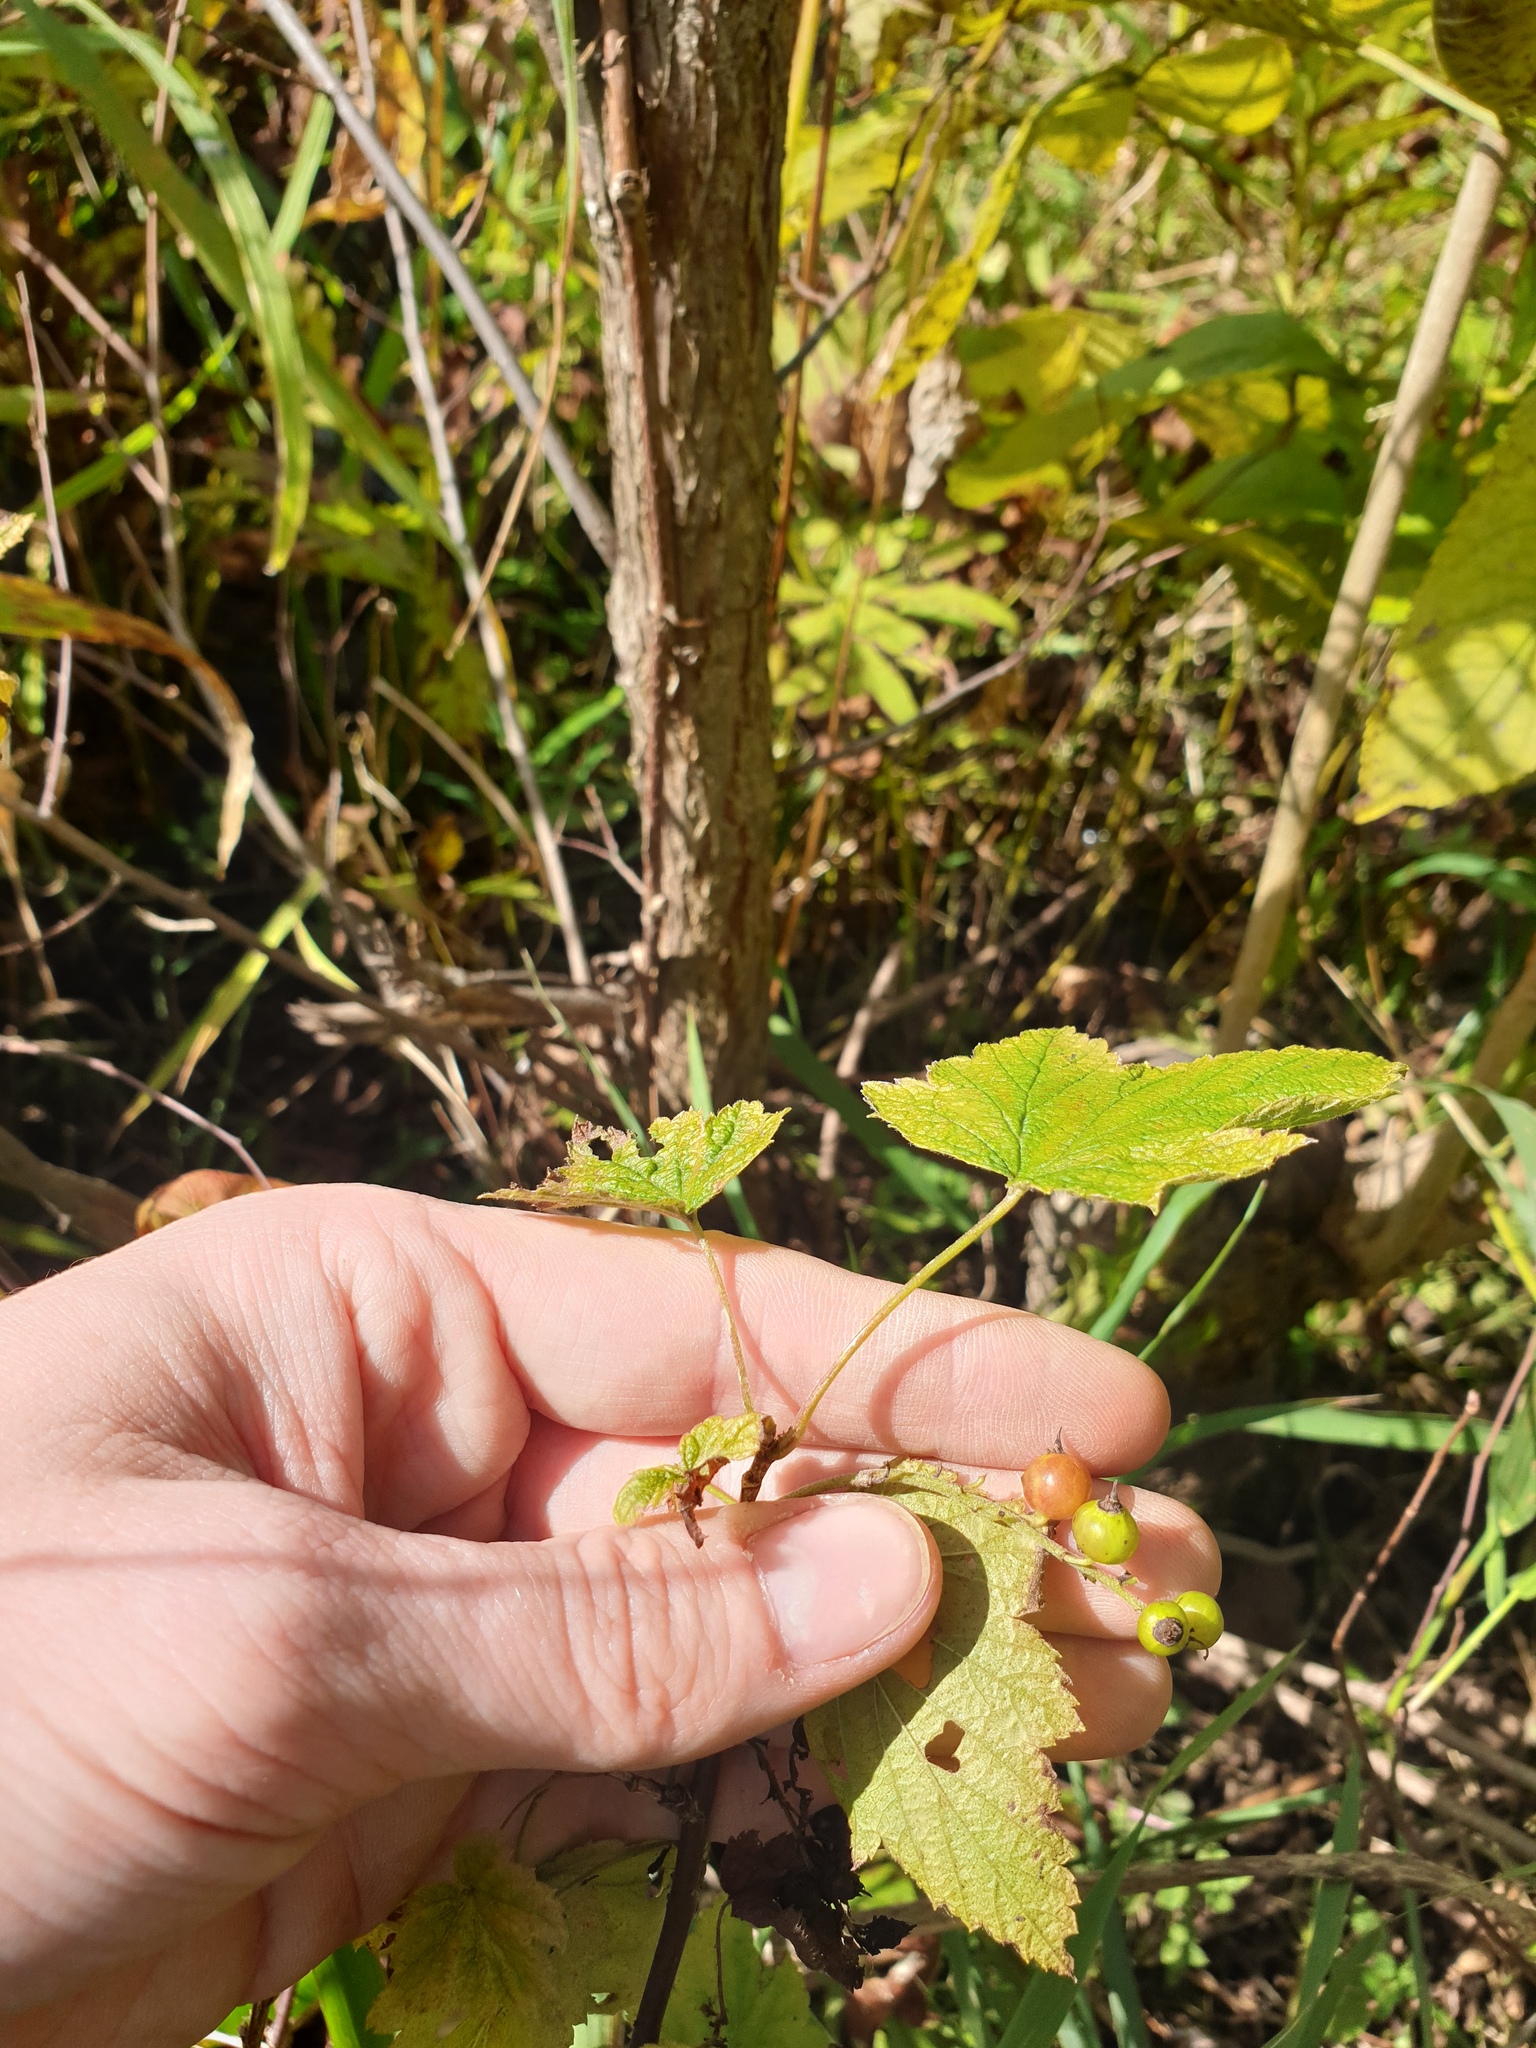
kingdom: Plantae
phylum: Tracheophyta
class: Magnoliopsida
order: Saxifragales
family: Grossulariaceae
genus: Ribes
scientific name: Ribes americanum
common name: American black currant
